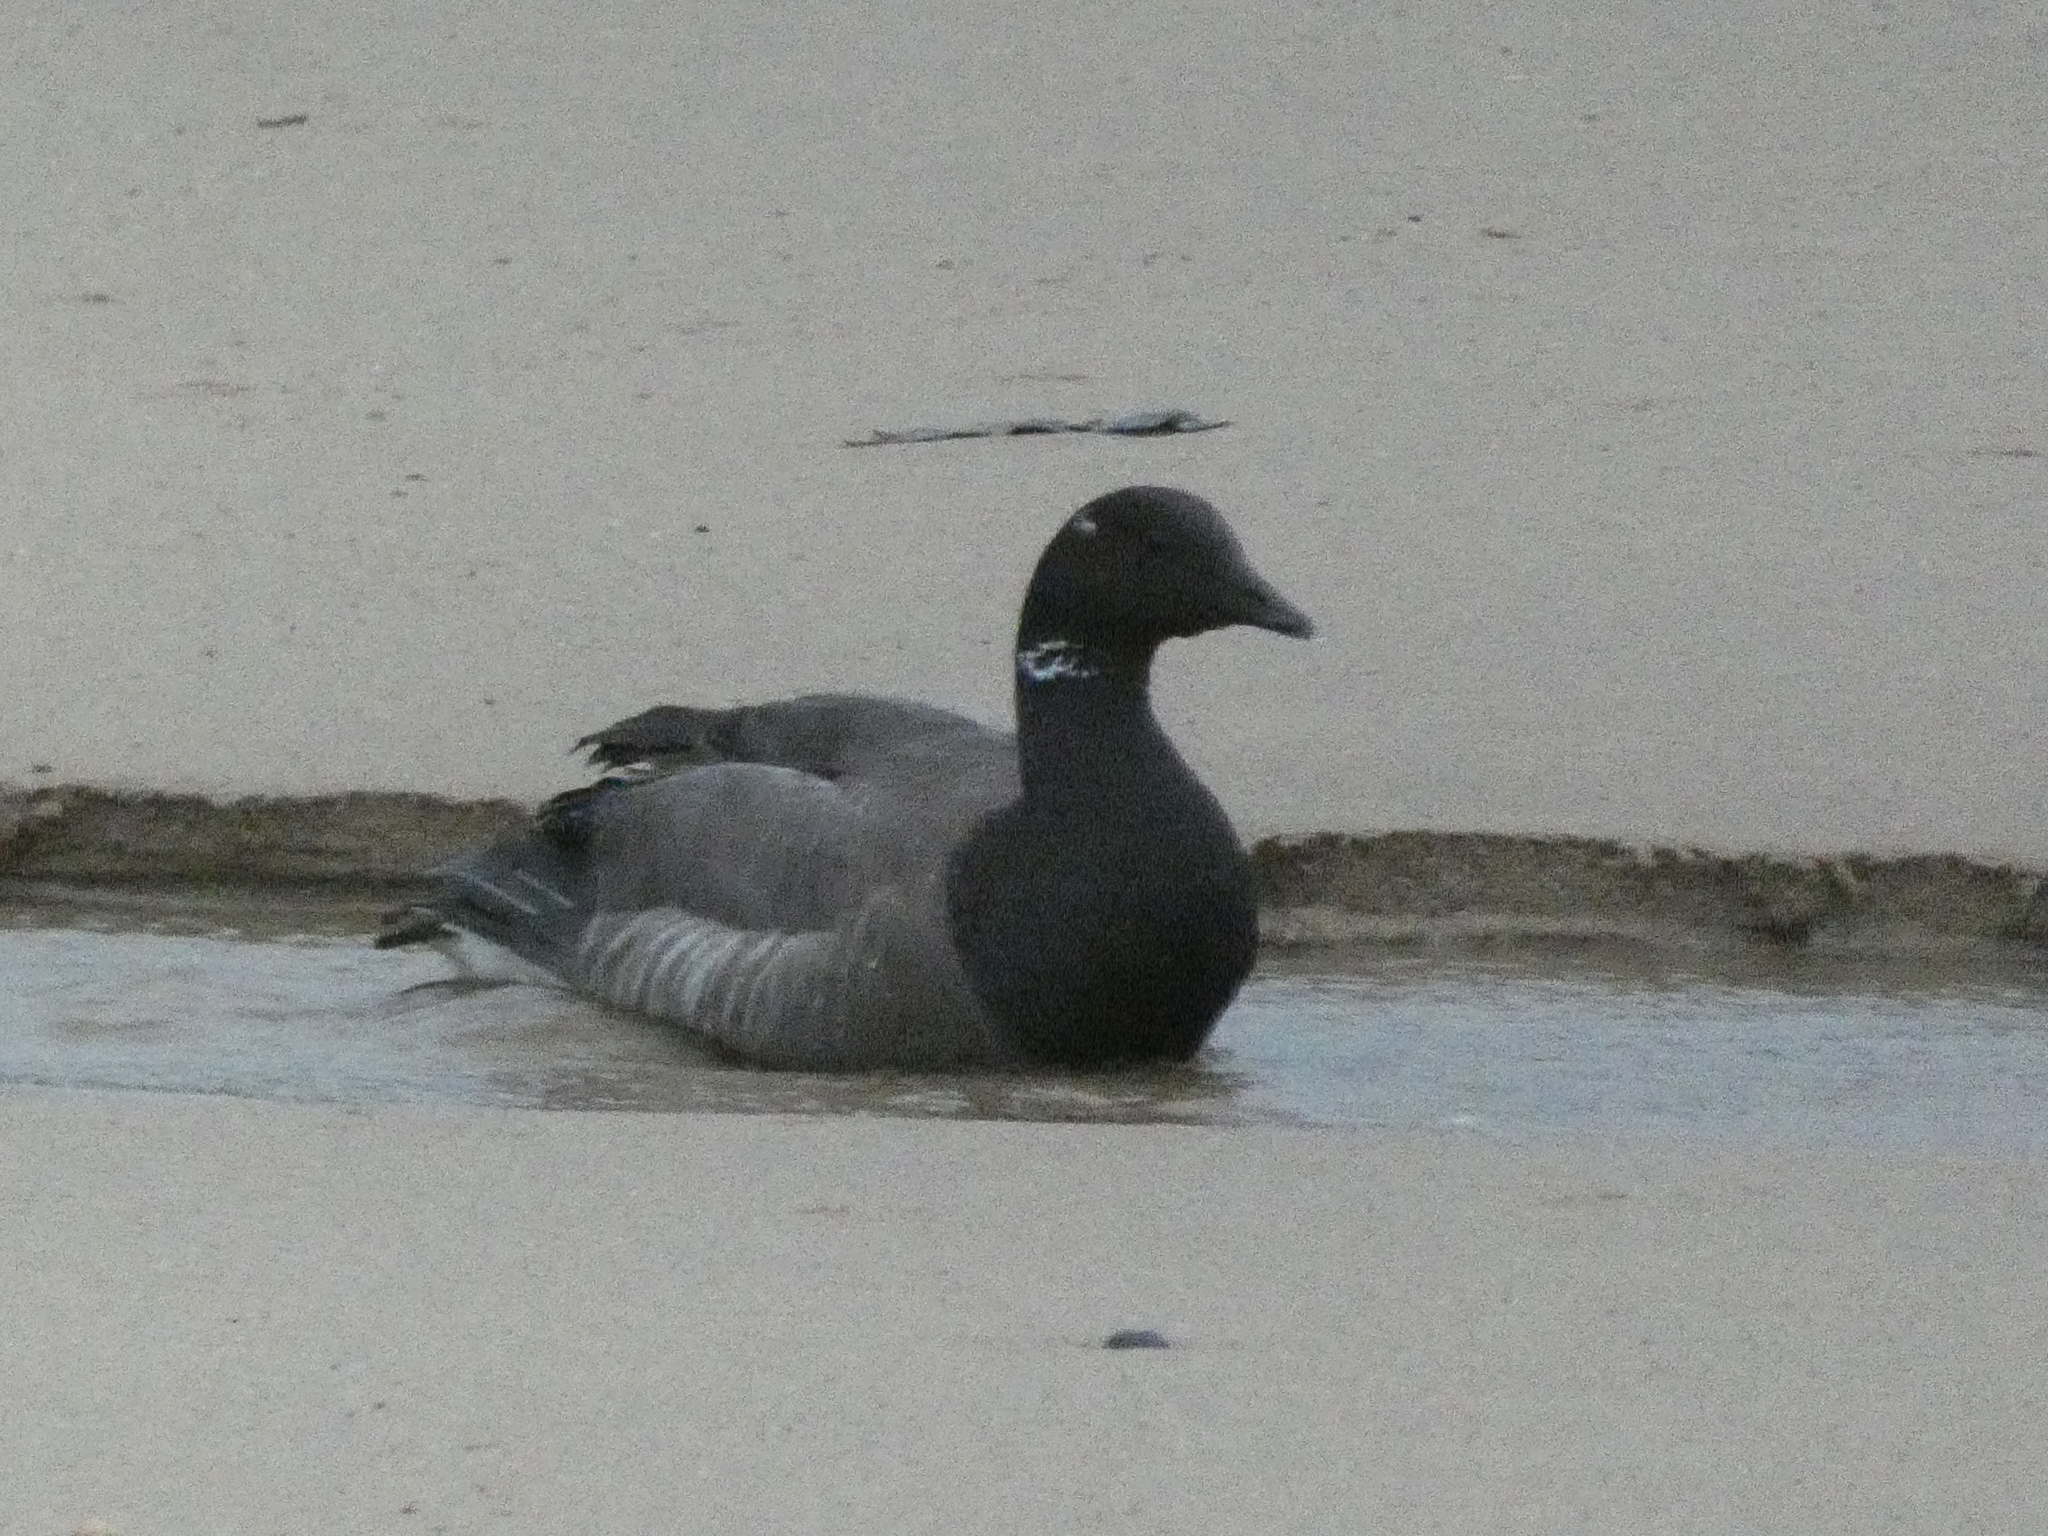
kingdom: Animalia
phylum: Chordata
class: Aves
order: Anseriformes
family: Anatidae
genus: Branta
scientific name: Branta bernicla
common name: Brant goose
